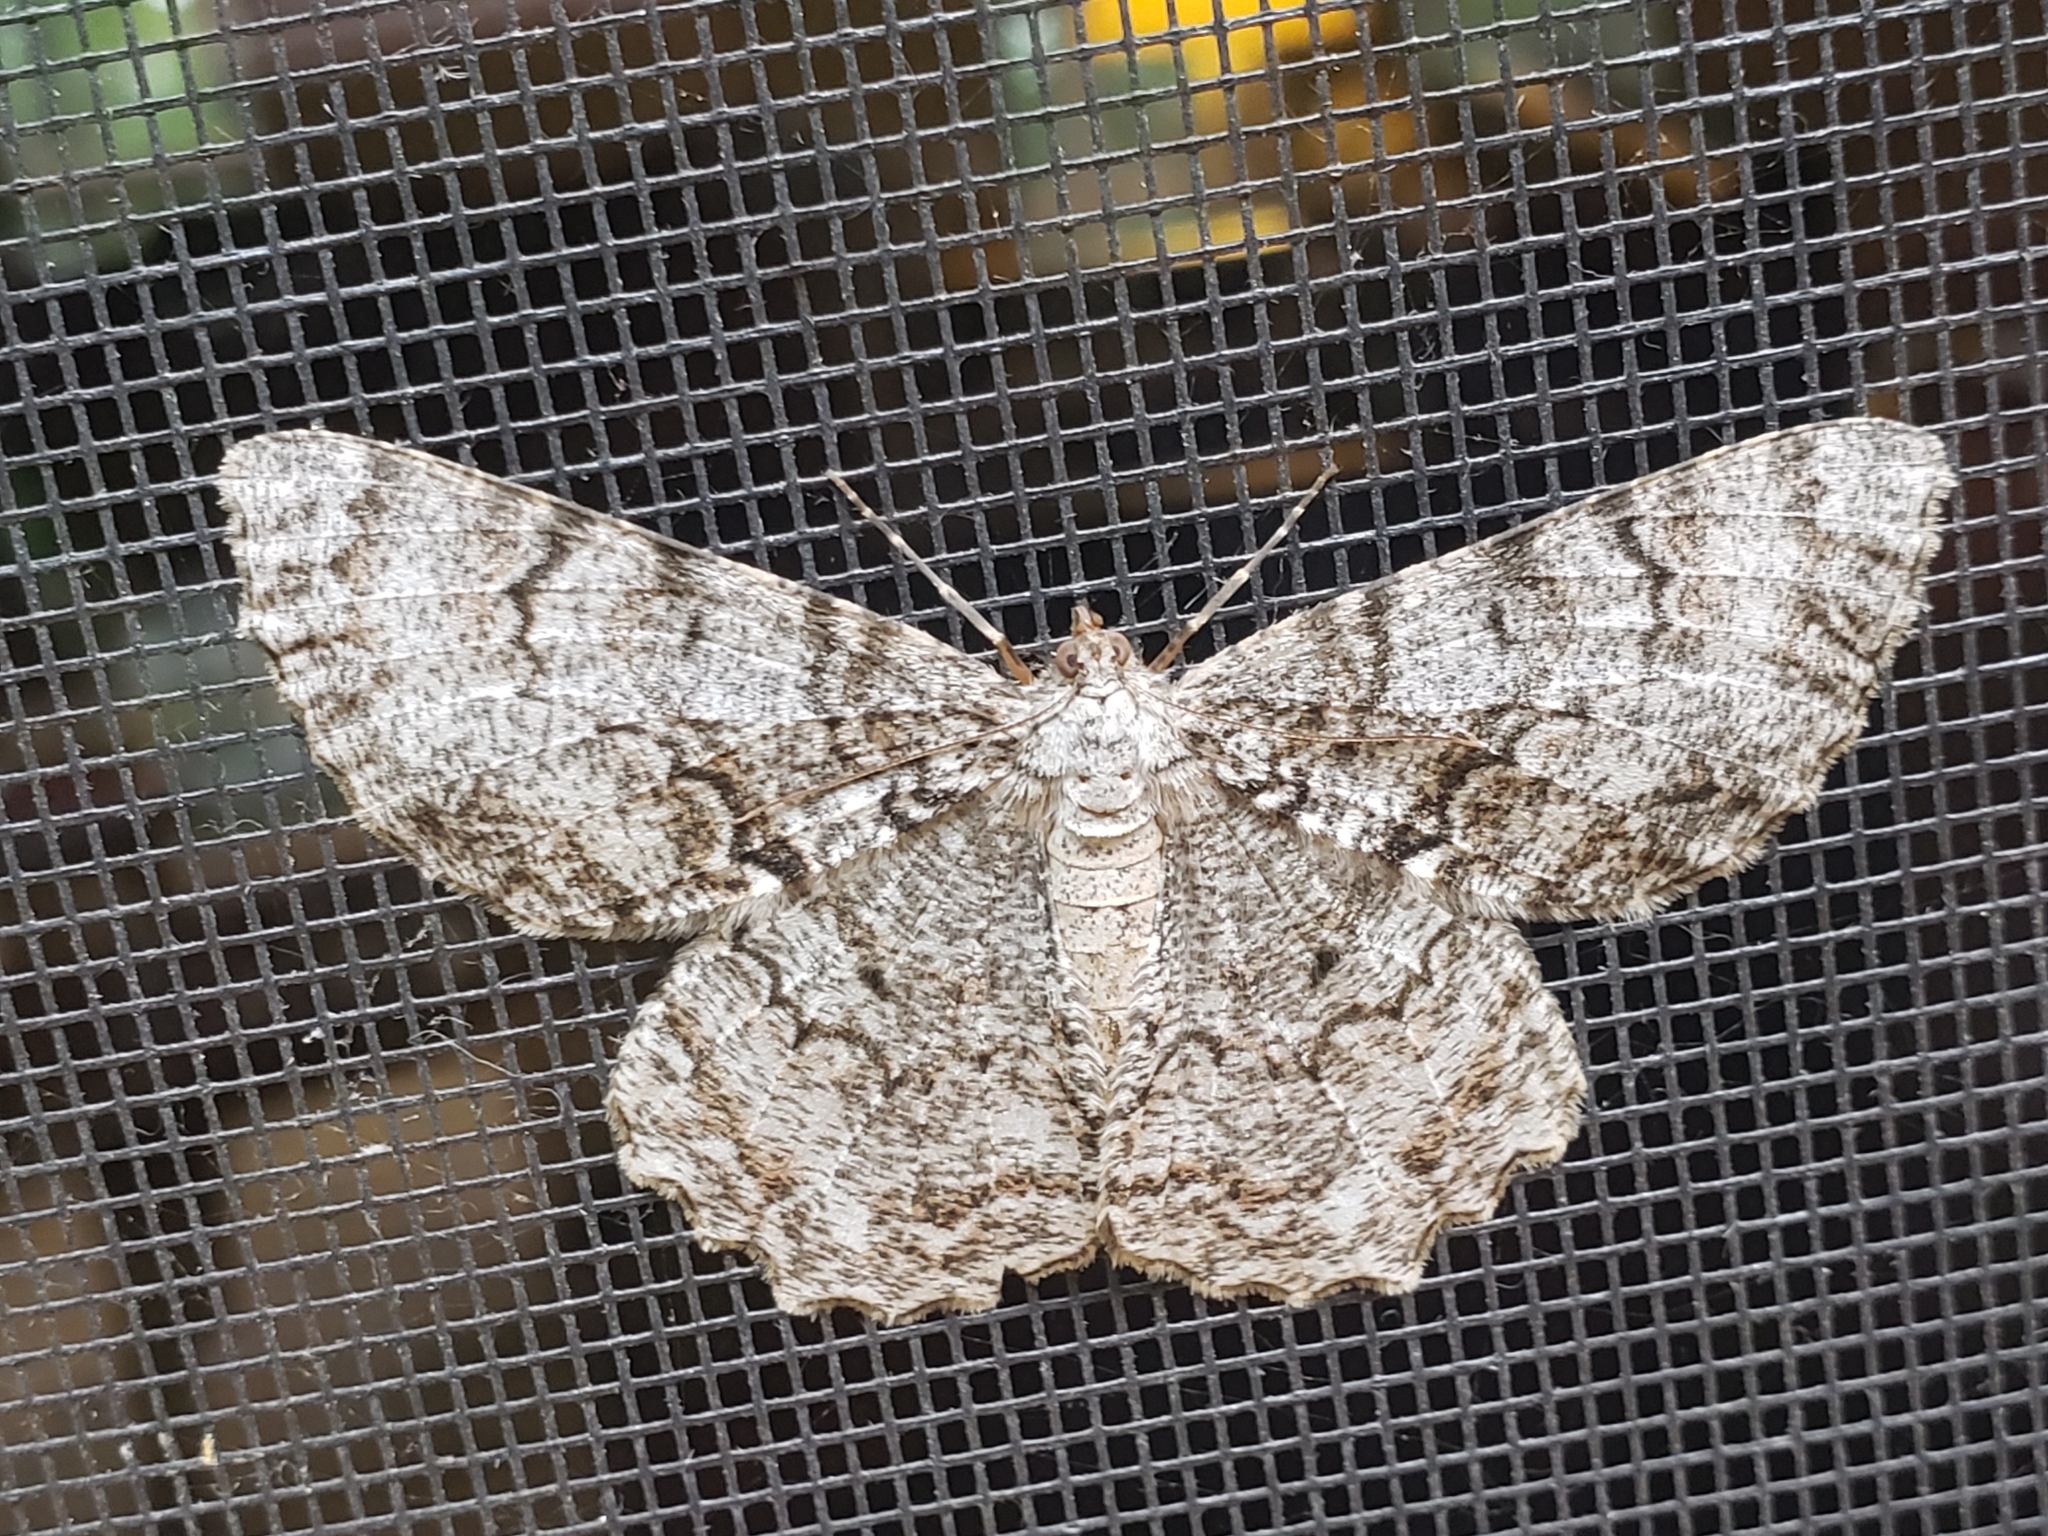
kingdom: Animalia
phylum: Arthropoda
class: Insecta
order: Lepidoptera
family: Geometridae
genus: Epimecis
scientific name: Epimecis hortaria
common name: Tulip-tree beauty
